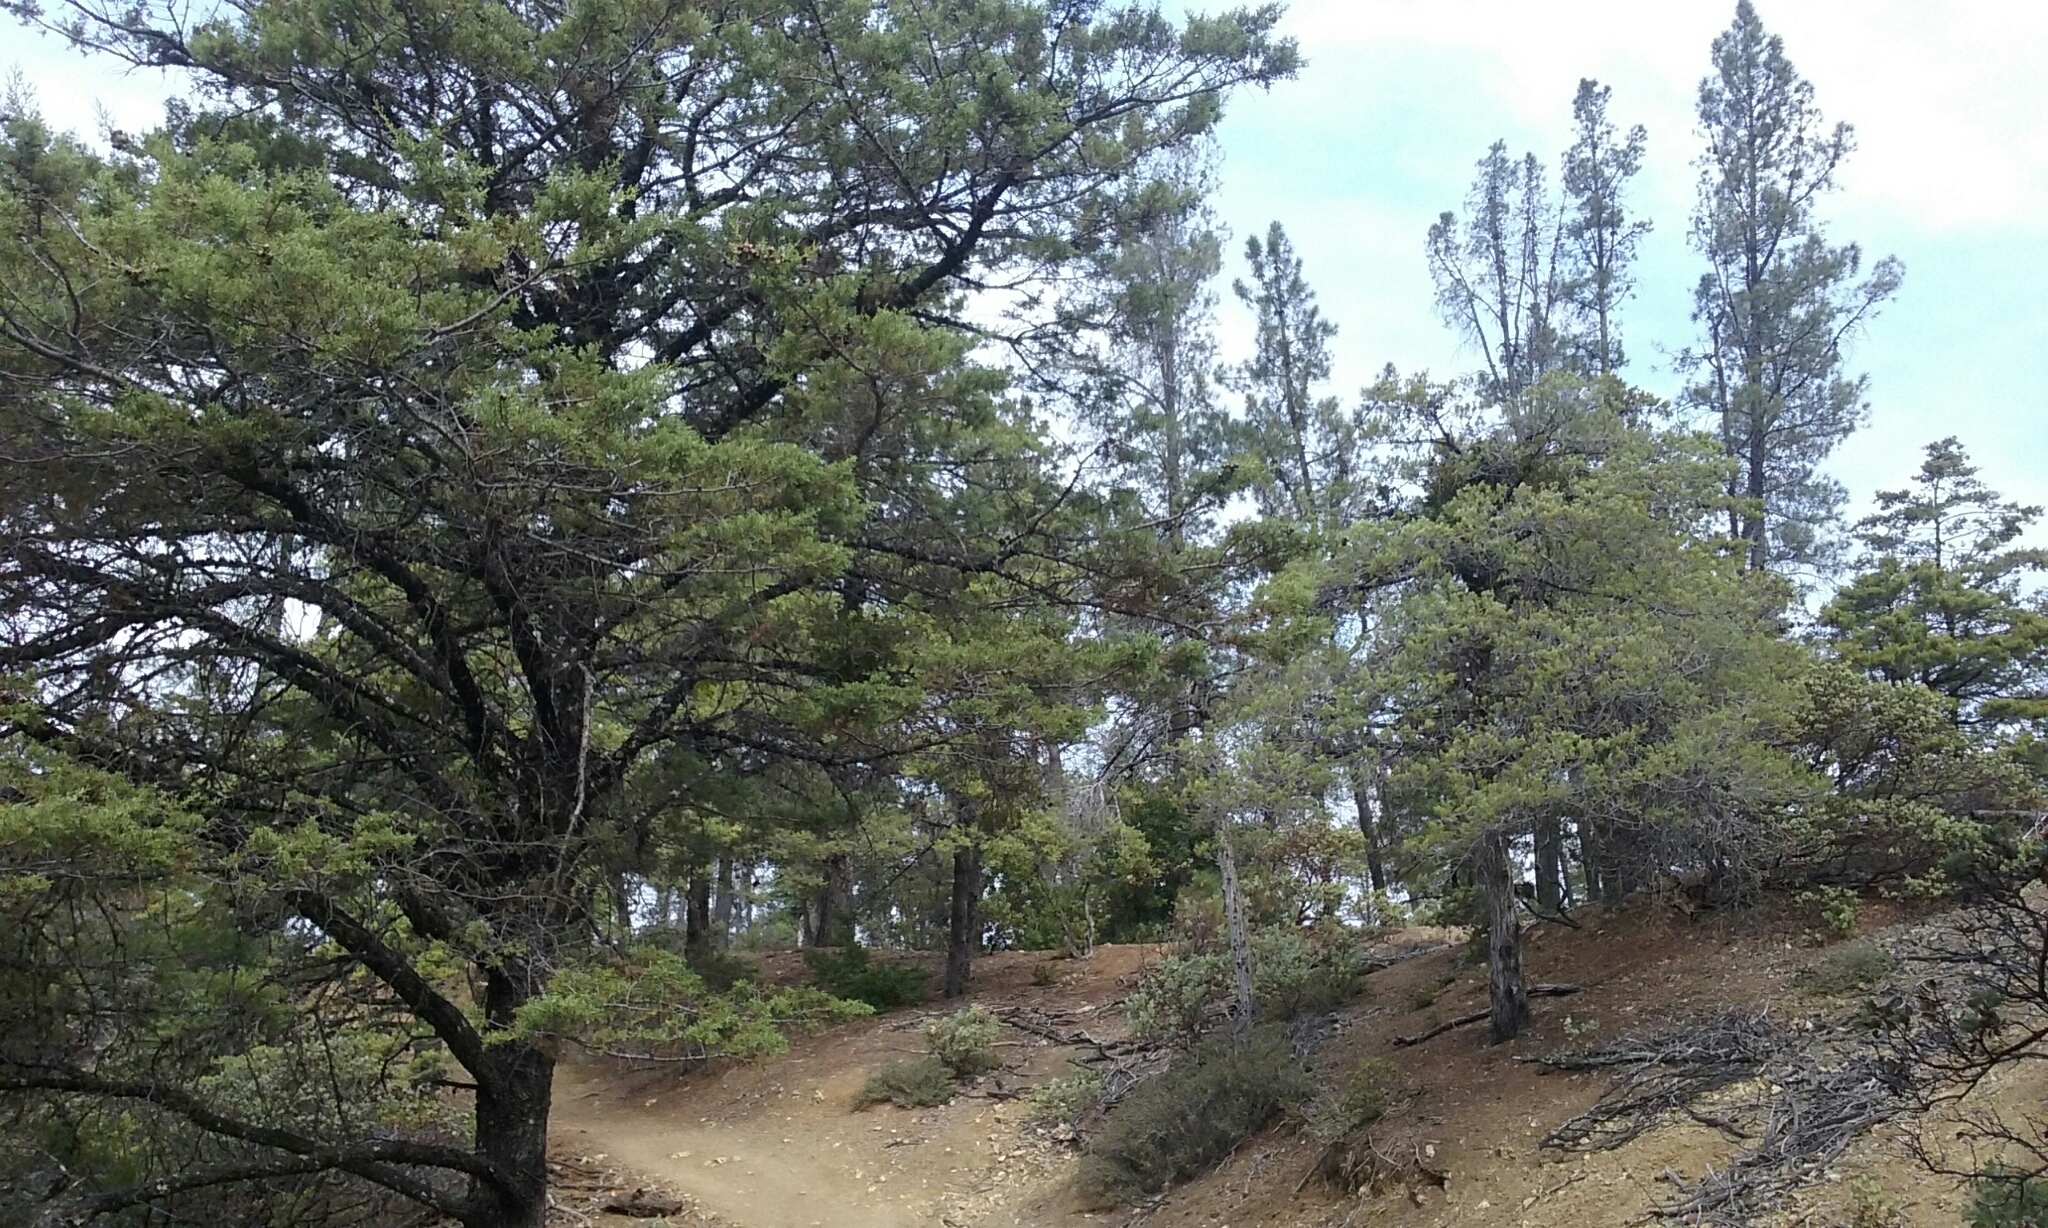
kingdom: Plantae
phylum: Tracheophyta
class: Pinopsida
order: Pinales
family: Cupressaceae
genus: Cupressus
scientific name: Cupressus sargentii
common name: Sargent cypress
